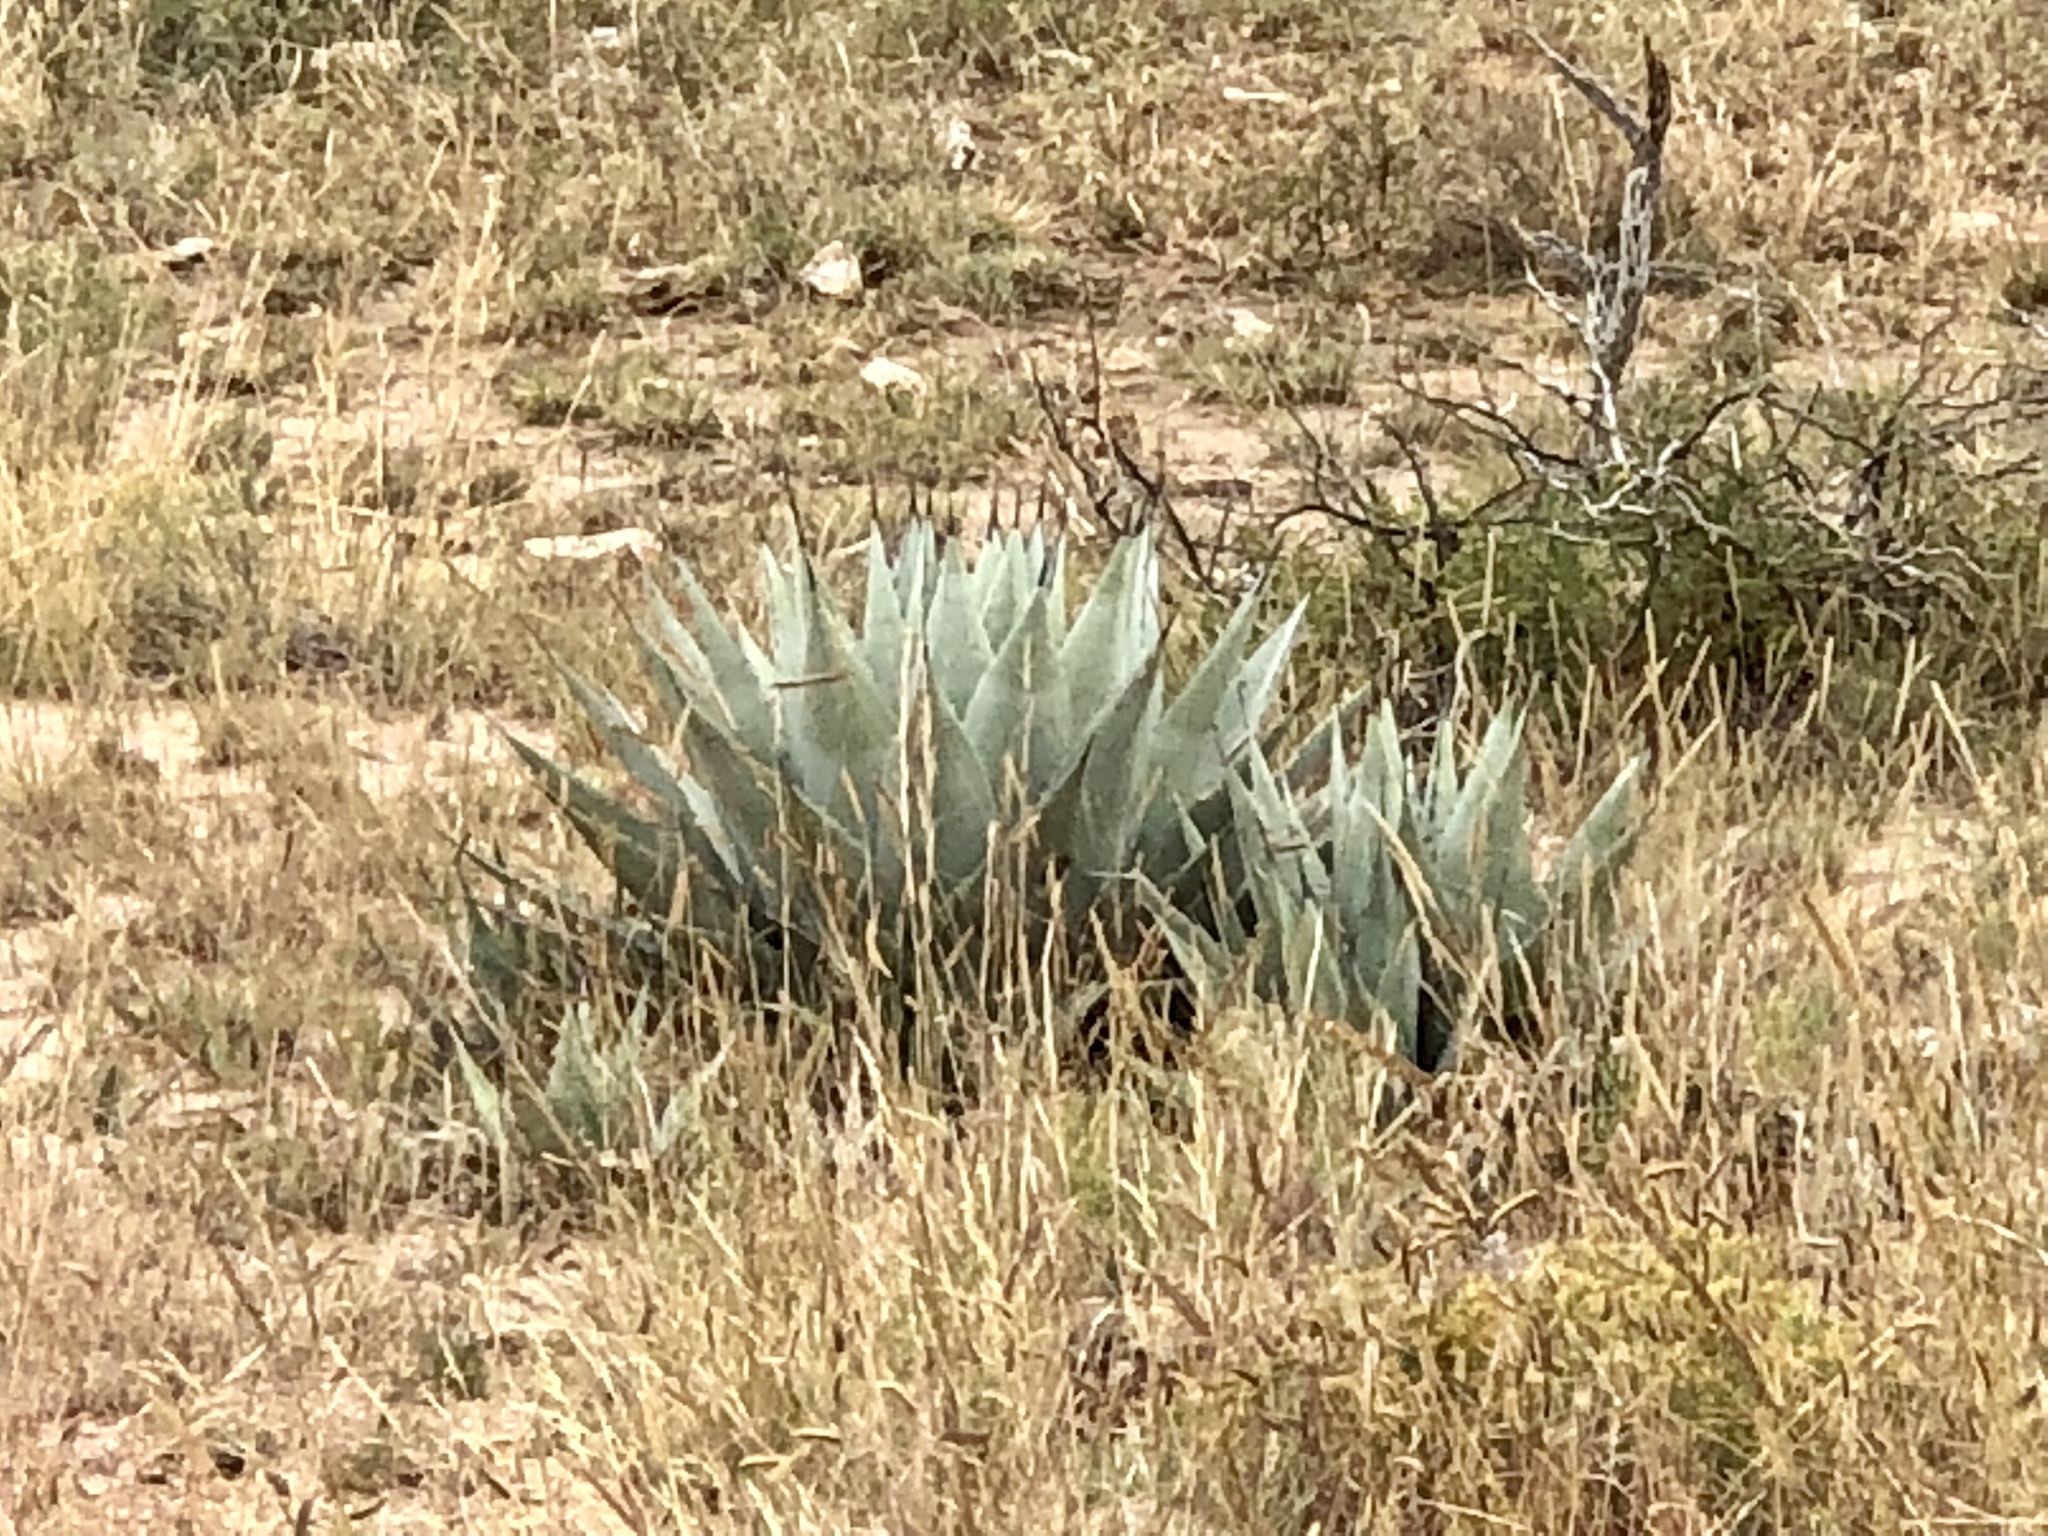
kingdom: Plantae
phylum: Tracheophyta
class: Liliopsida
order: Asparagales
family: Asparagaceae
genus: Agave
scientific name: Agave parryi
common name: Parry's agave
